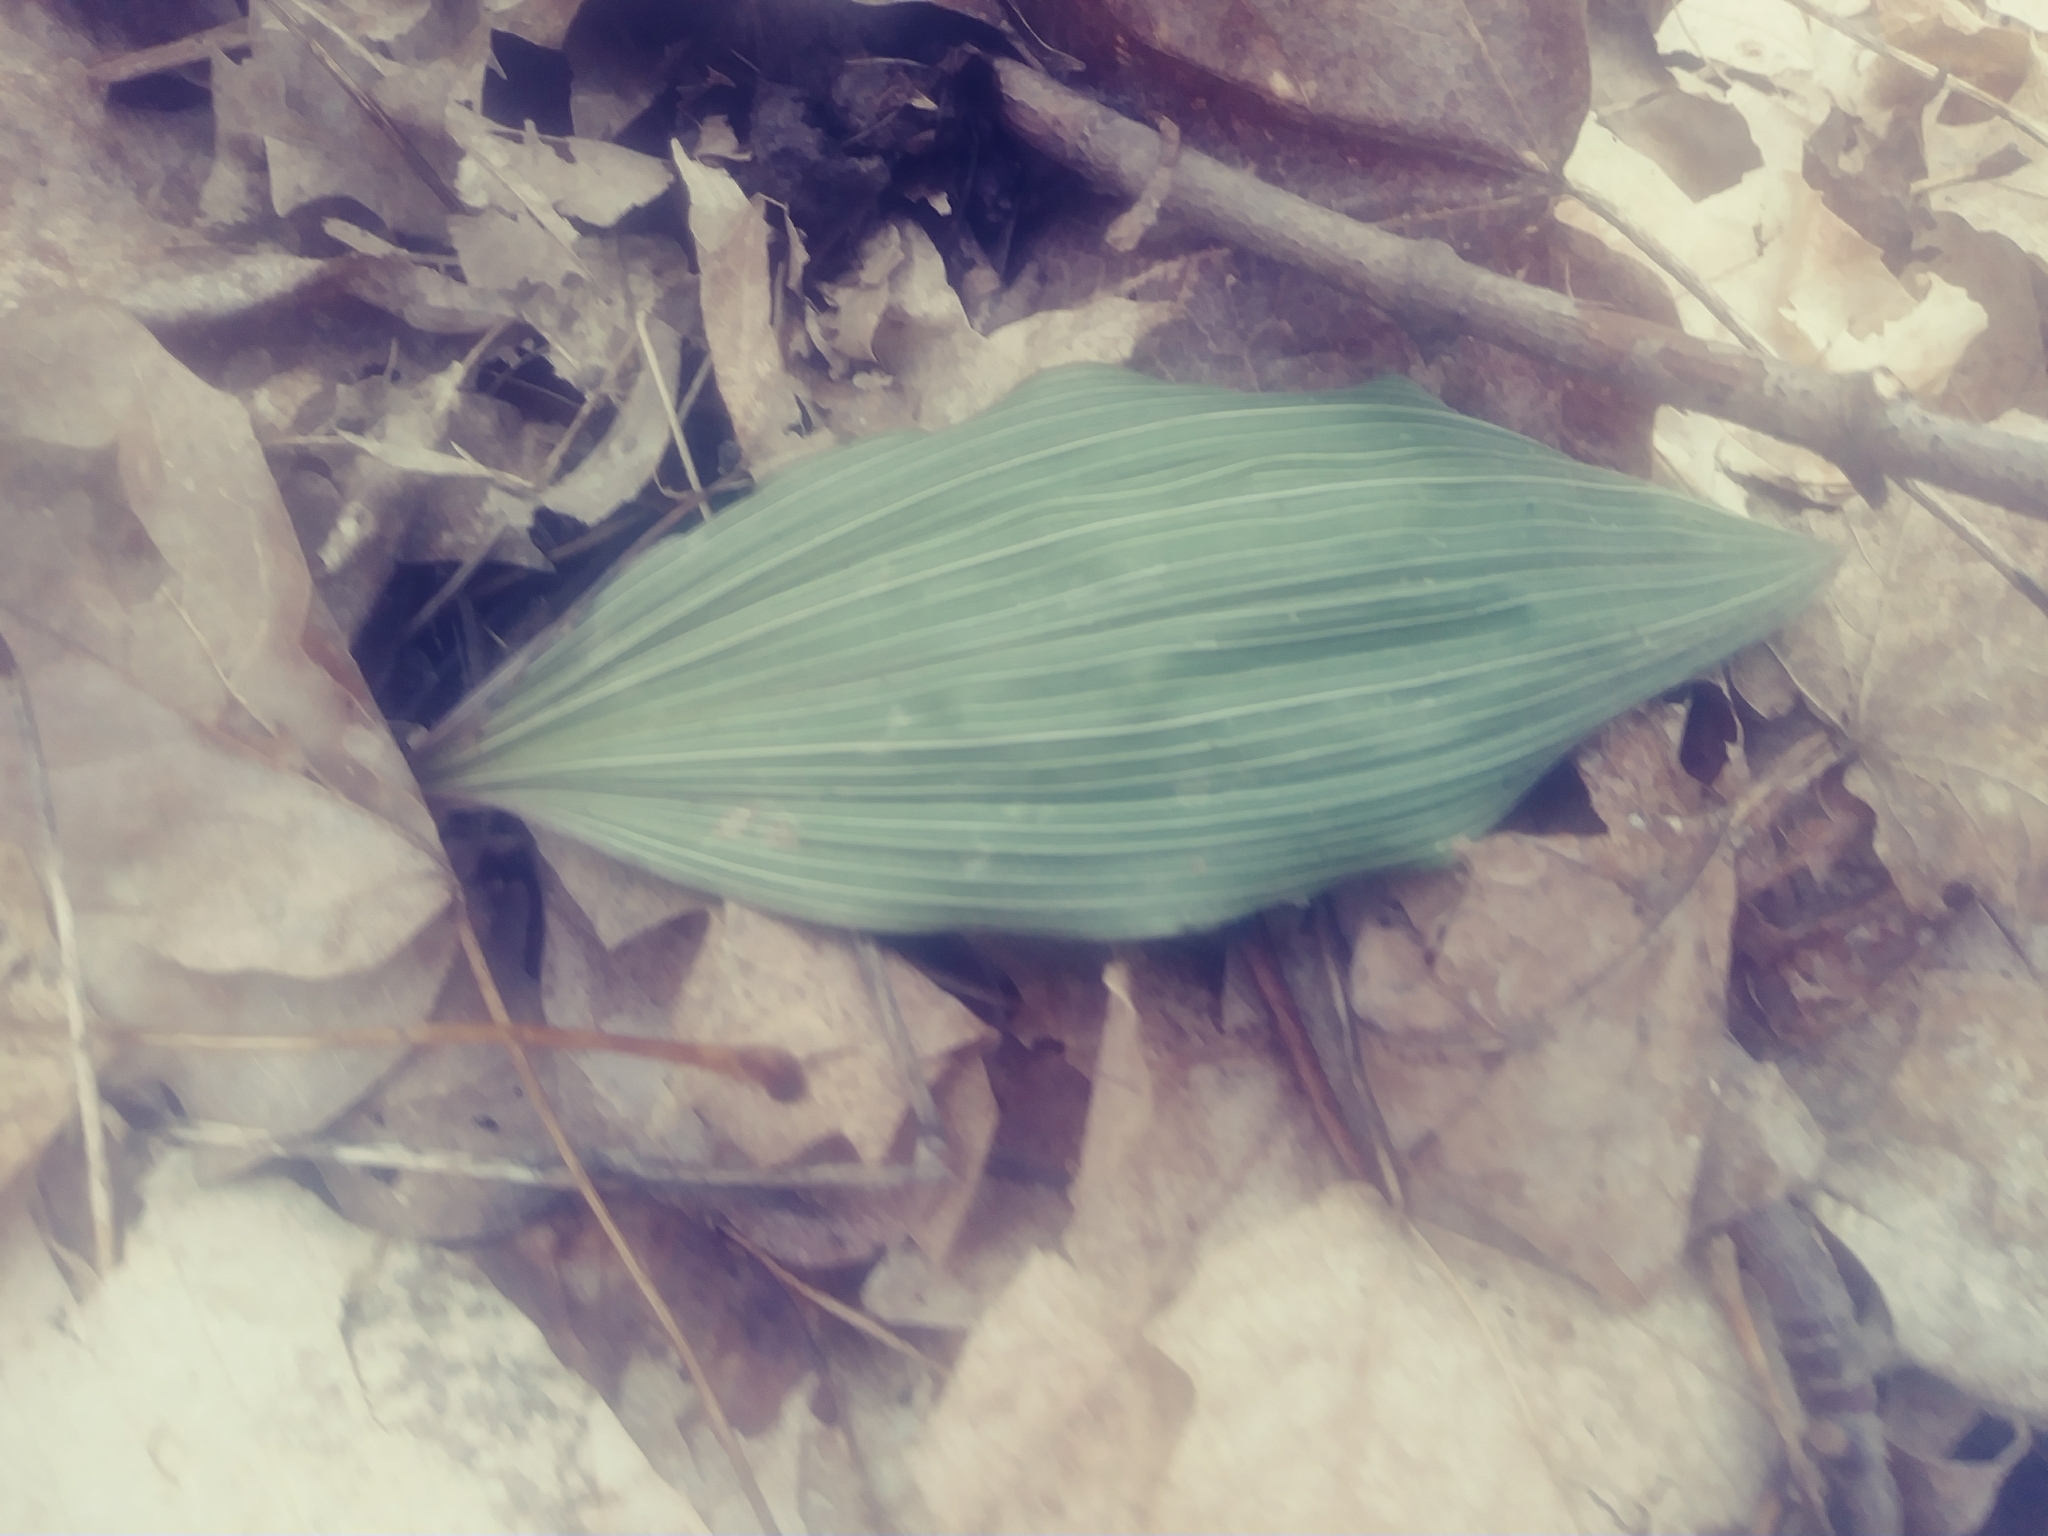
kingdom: Plantae
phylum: Tracheophyta
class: Liliopsida
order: Asparagales
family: Orchidaceae
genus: Aplectrum
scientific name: Aplectrum hyemale
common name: Adam-and-eve
